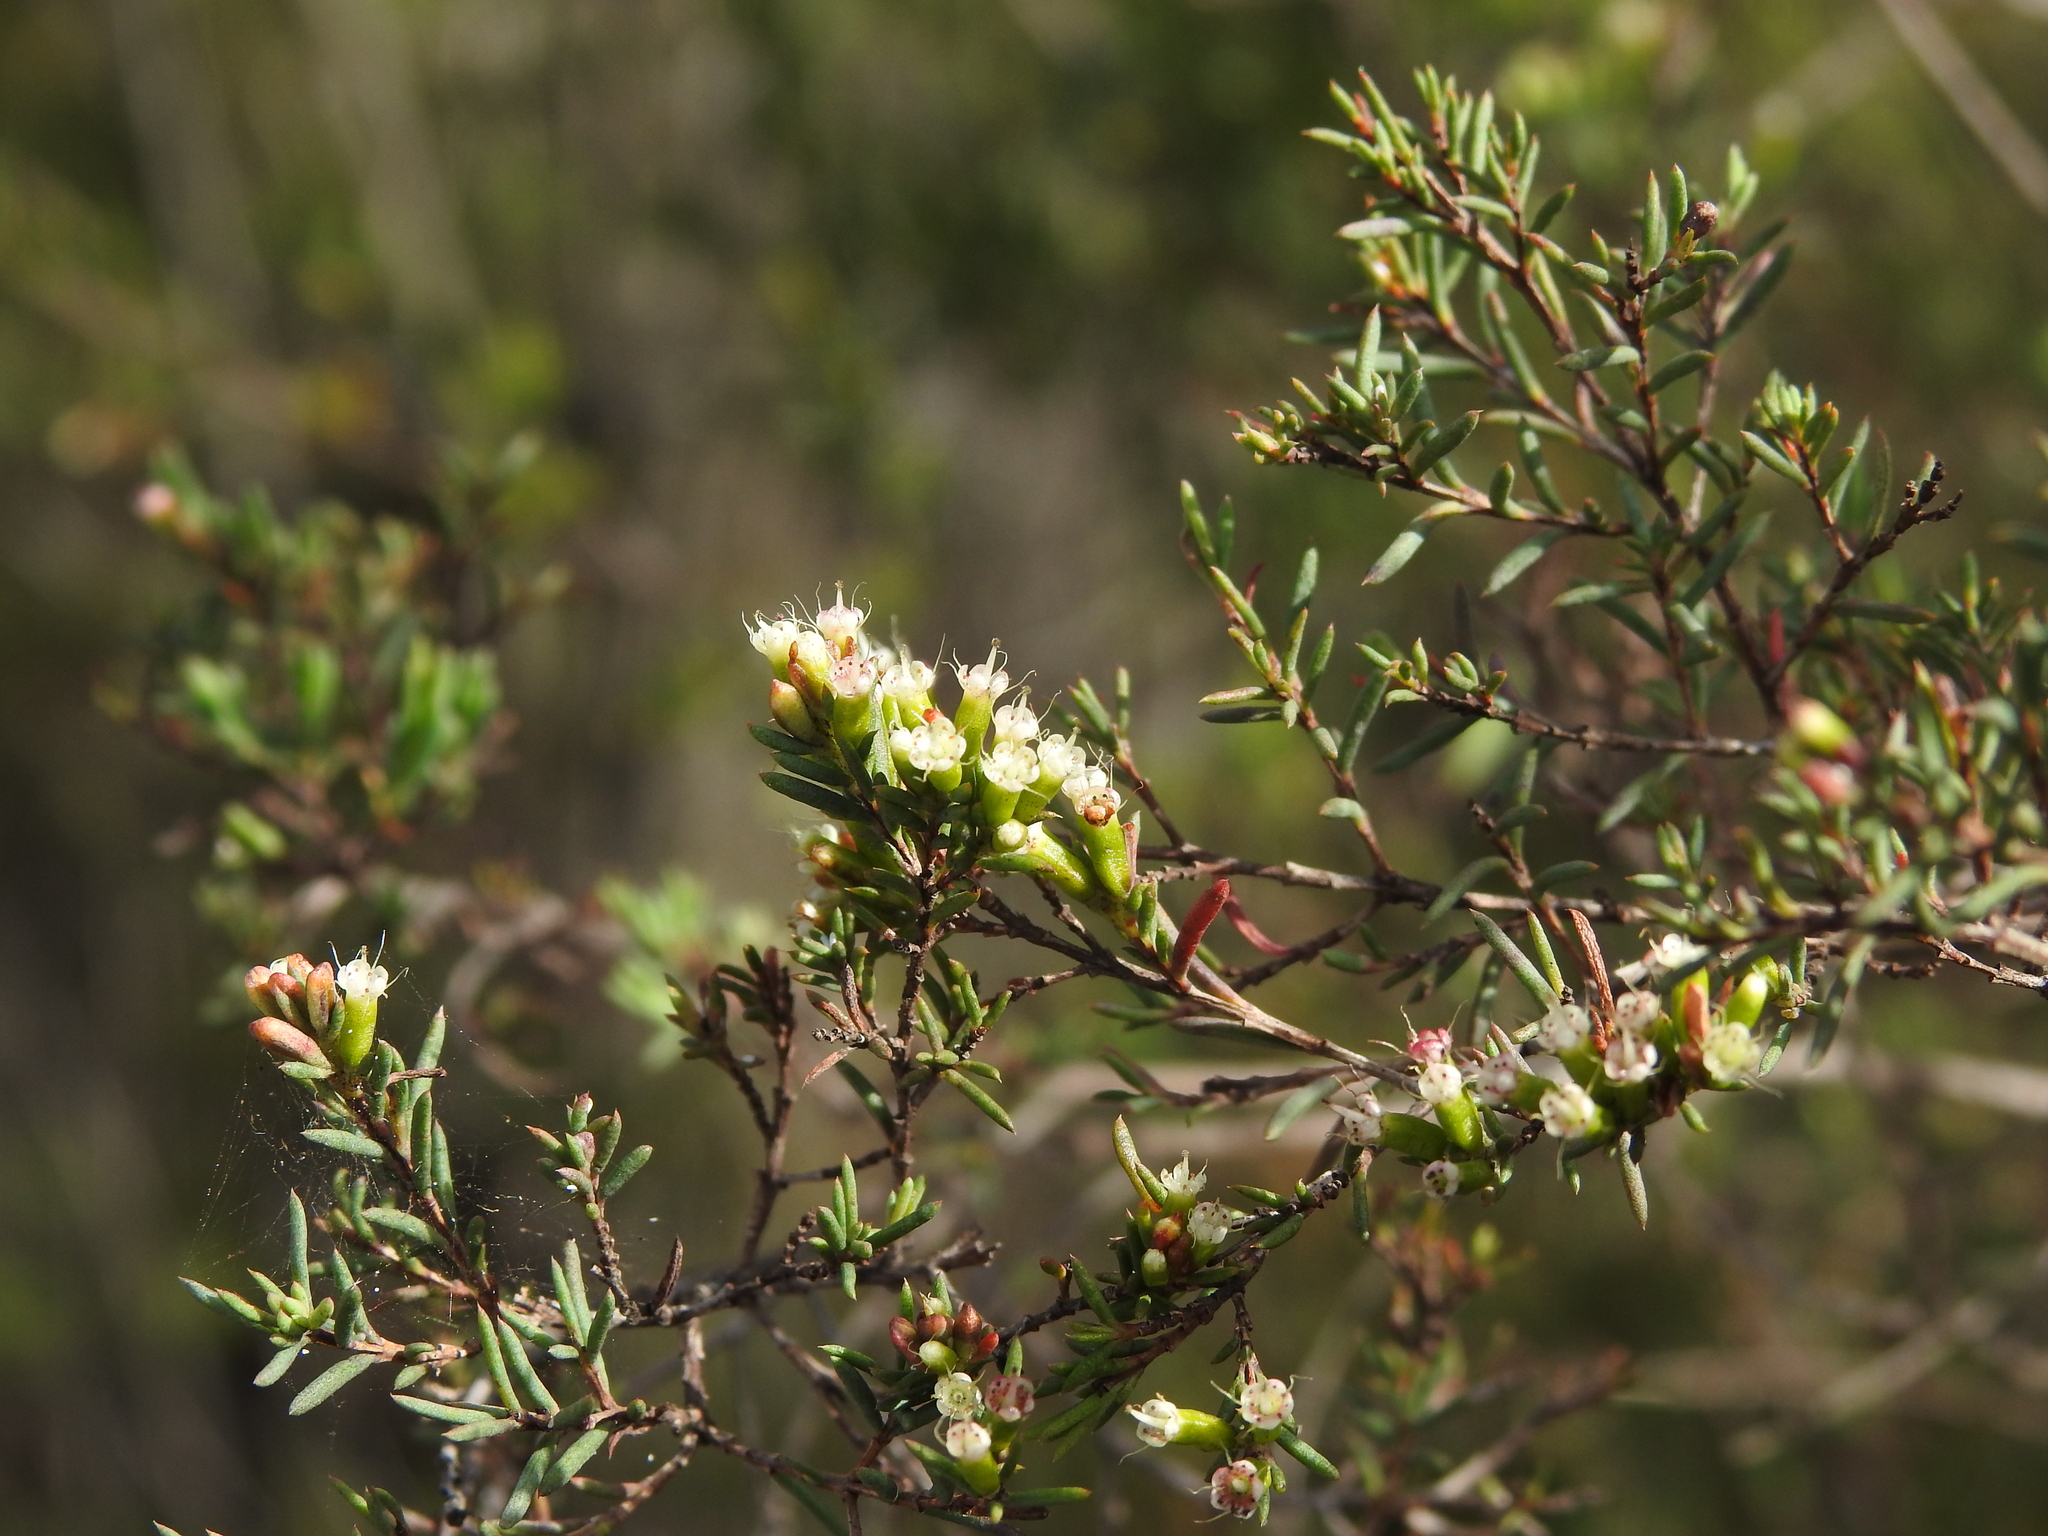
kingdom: Plantae
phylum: Tracheophyta
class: Magnoliopsida
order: Myrtales
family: Myrtaceae
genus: Homoranthus
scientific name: Homoranthus virgatus
